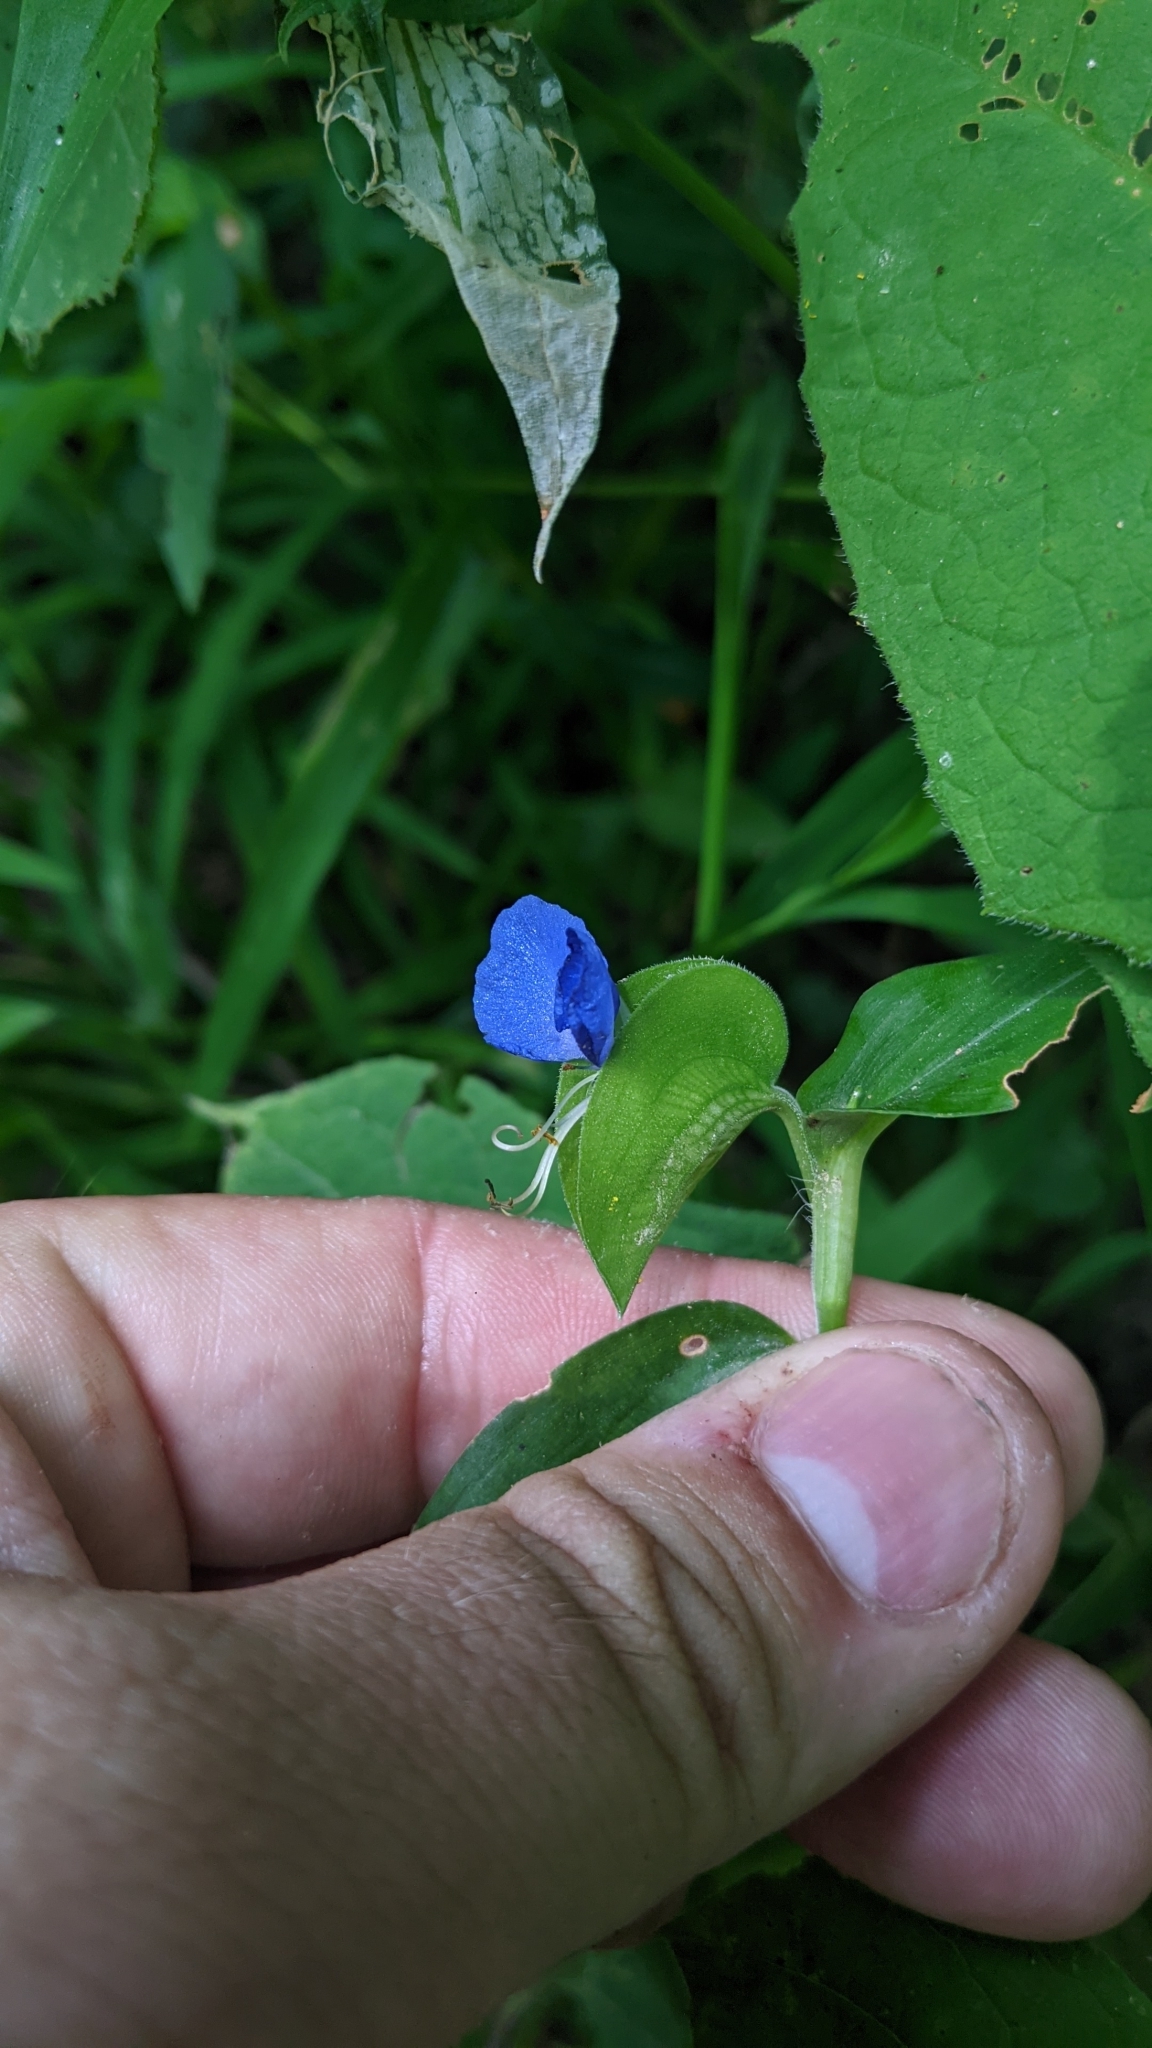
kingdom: Plantae
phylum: Tracheophyta
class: Liliopsida
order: Commelinales
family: Commelinaceae
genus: Commelina
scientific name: Commelina communis
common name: Asiatic dayflower
